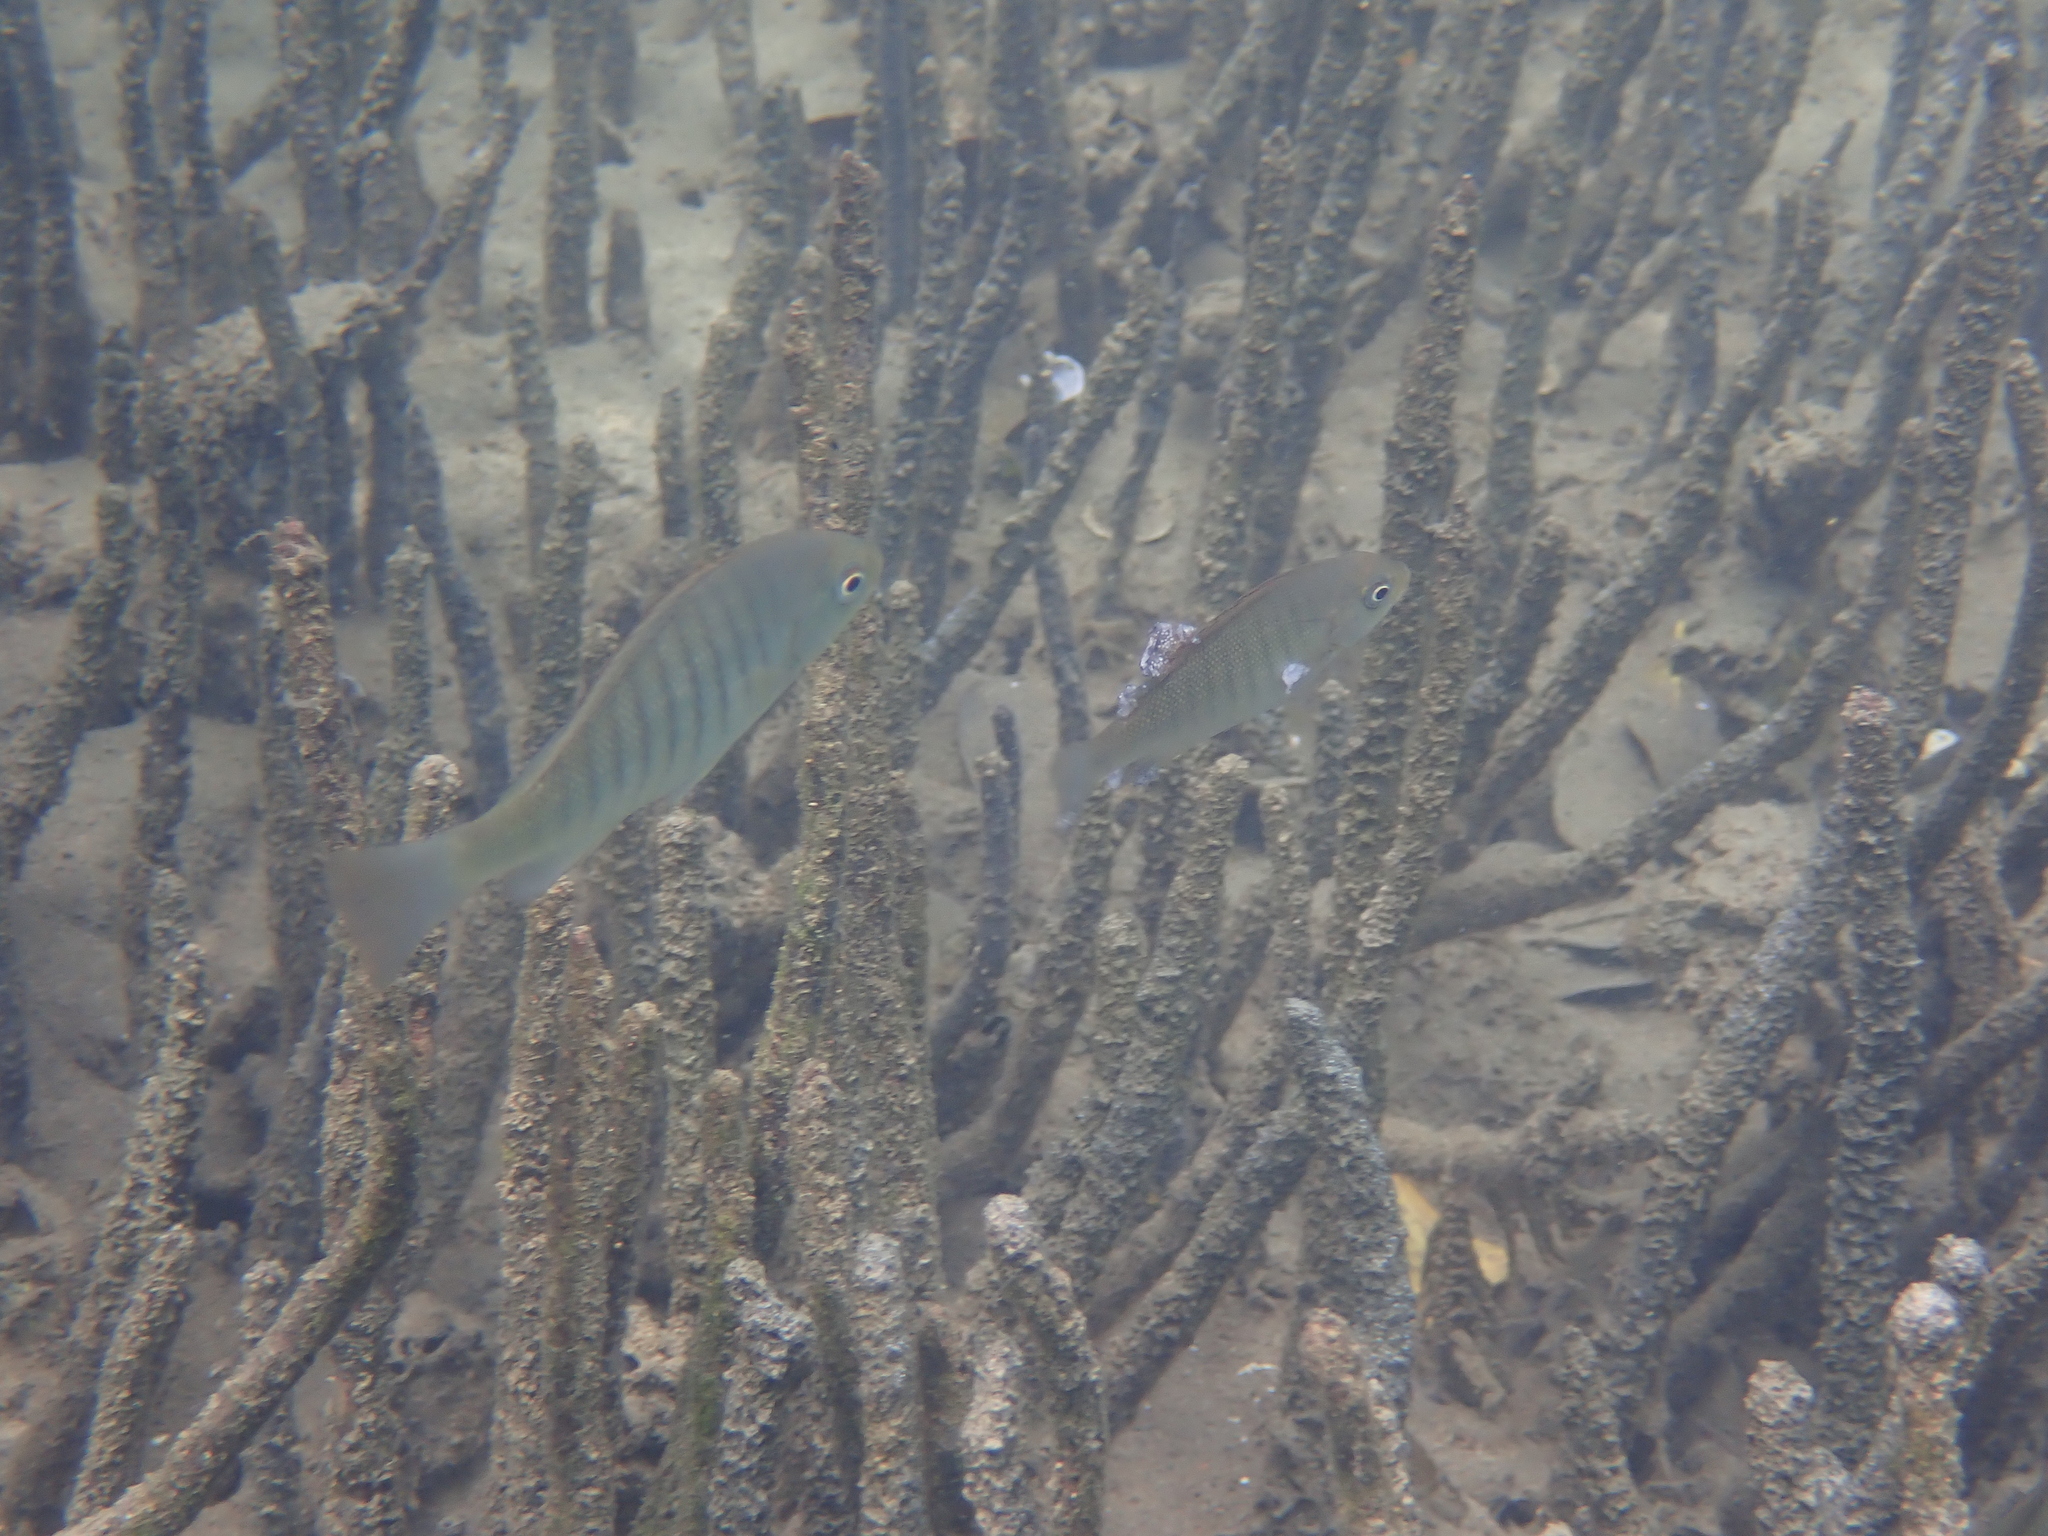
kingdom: Animalia
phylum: Chordata
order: Perciformes
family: Kyphosidae
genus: Girella
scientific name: Girella tricuspidata
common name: Parore
